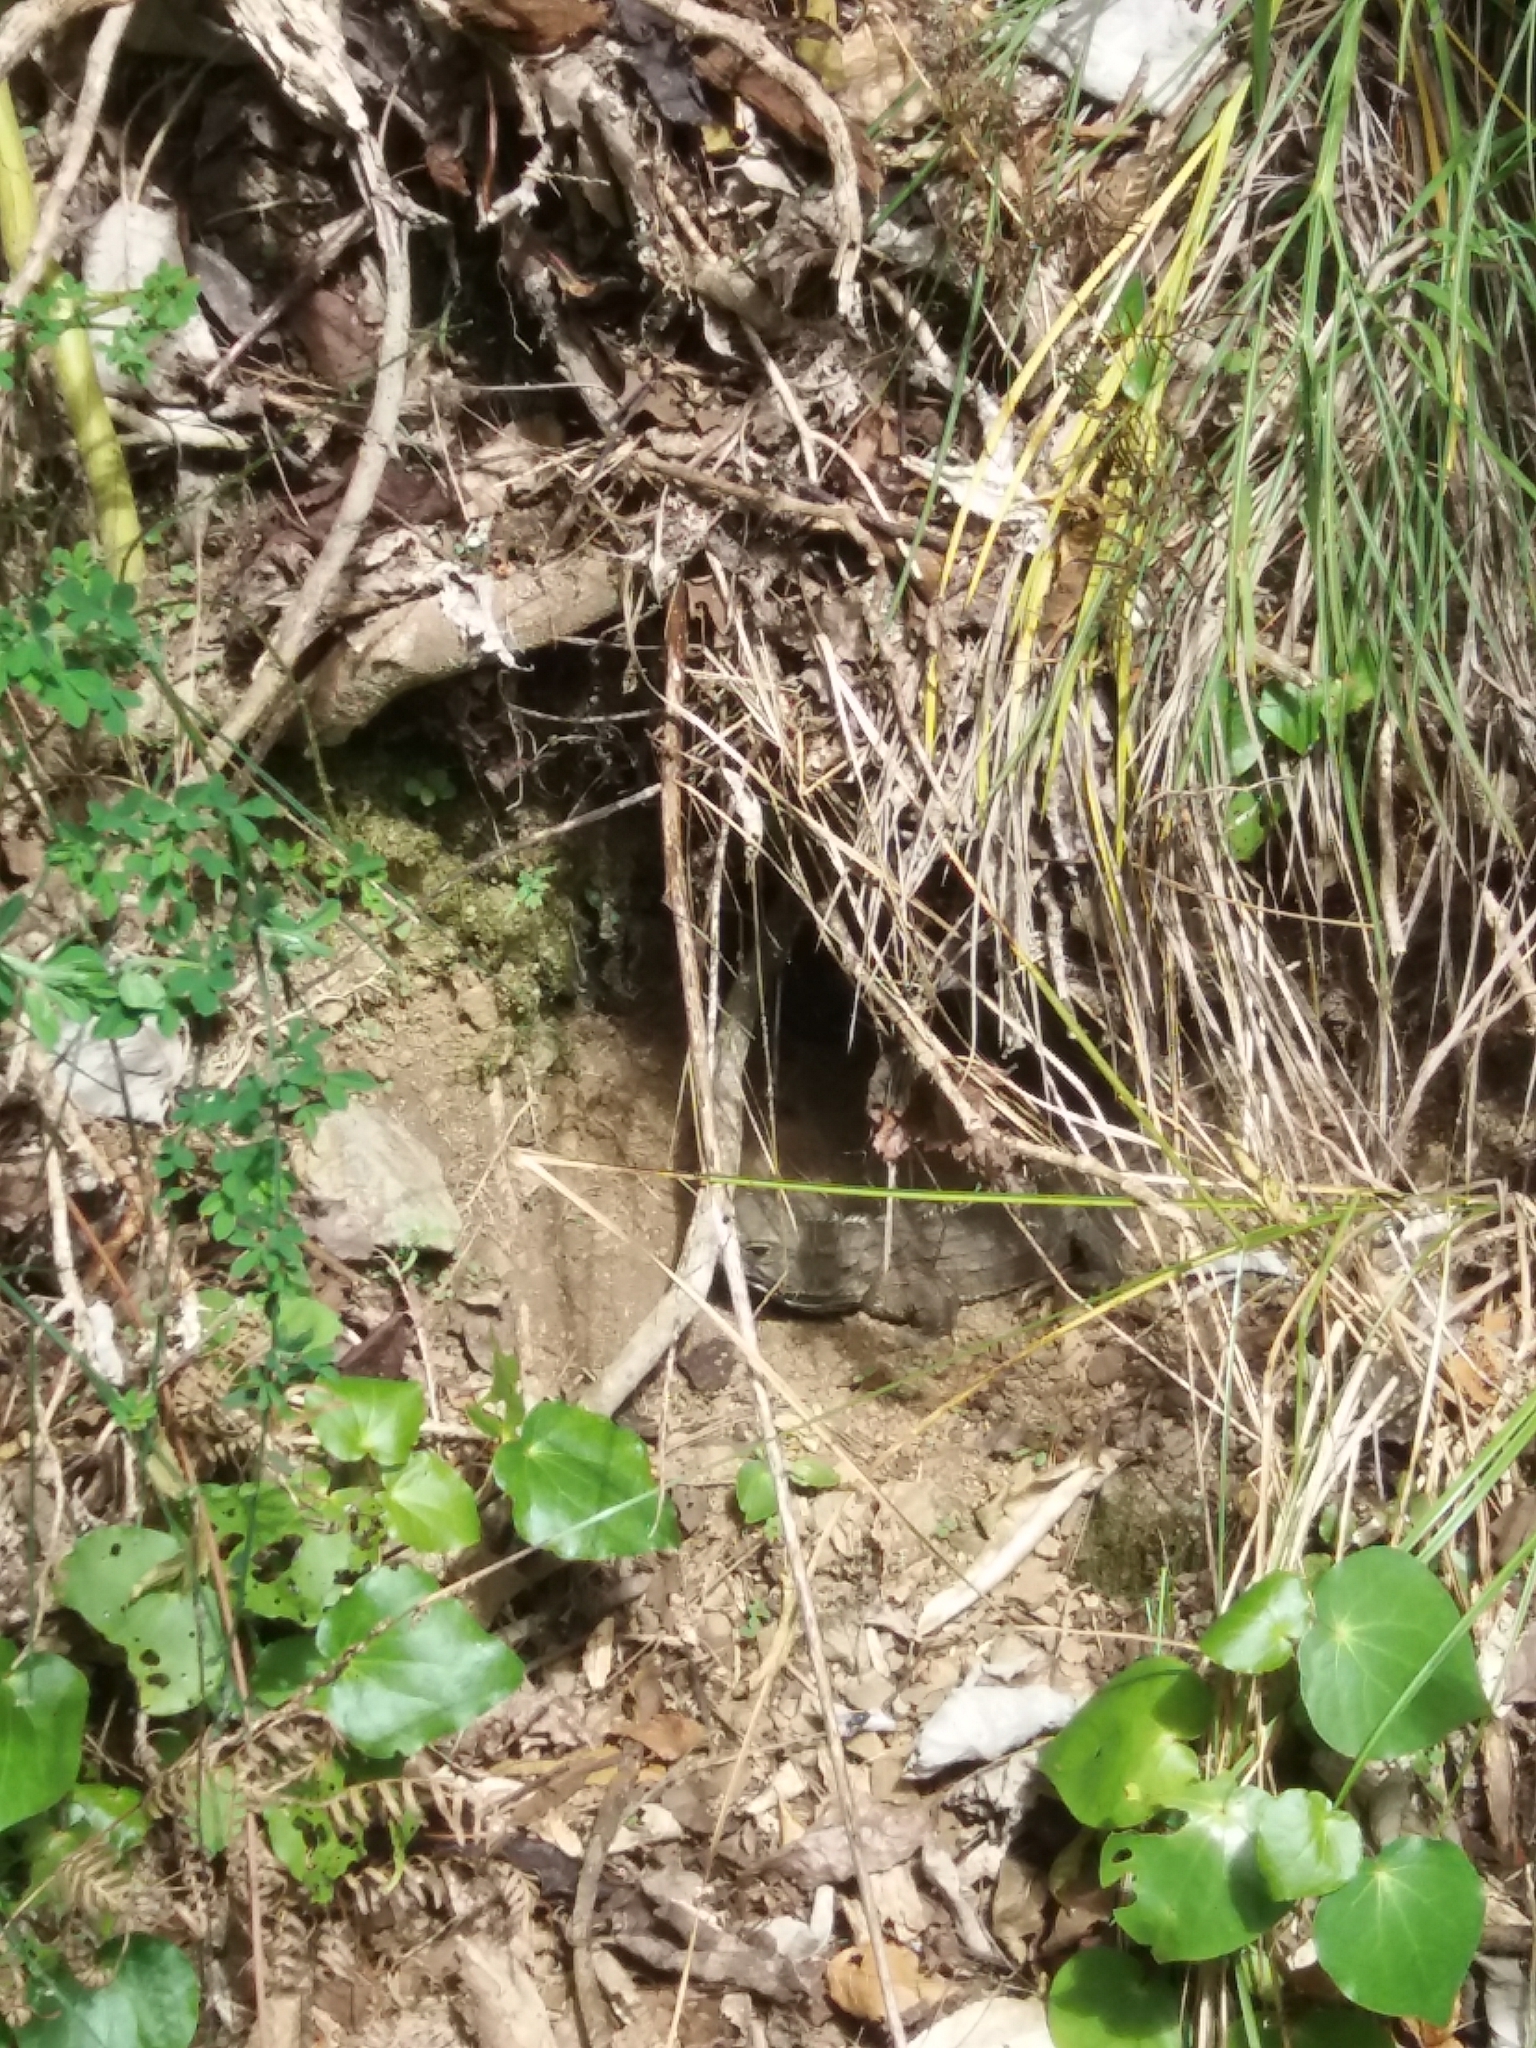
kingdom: Animalia
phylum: Chordata
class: Sphenodontia
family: Sphenodontidae
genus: Sphenodon
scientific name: Sphenodon punctatus
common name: Tuatara
